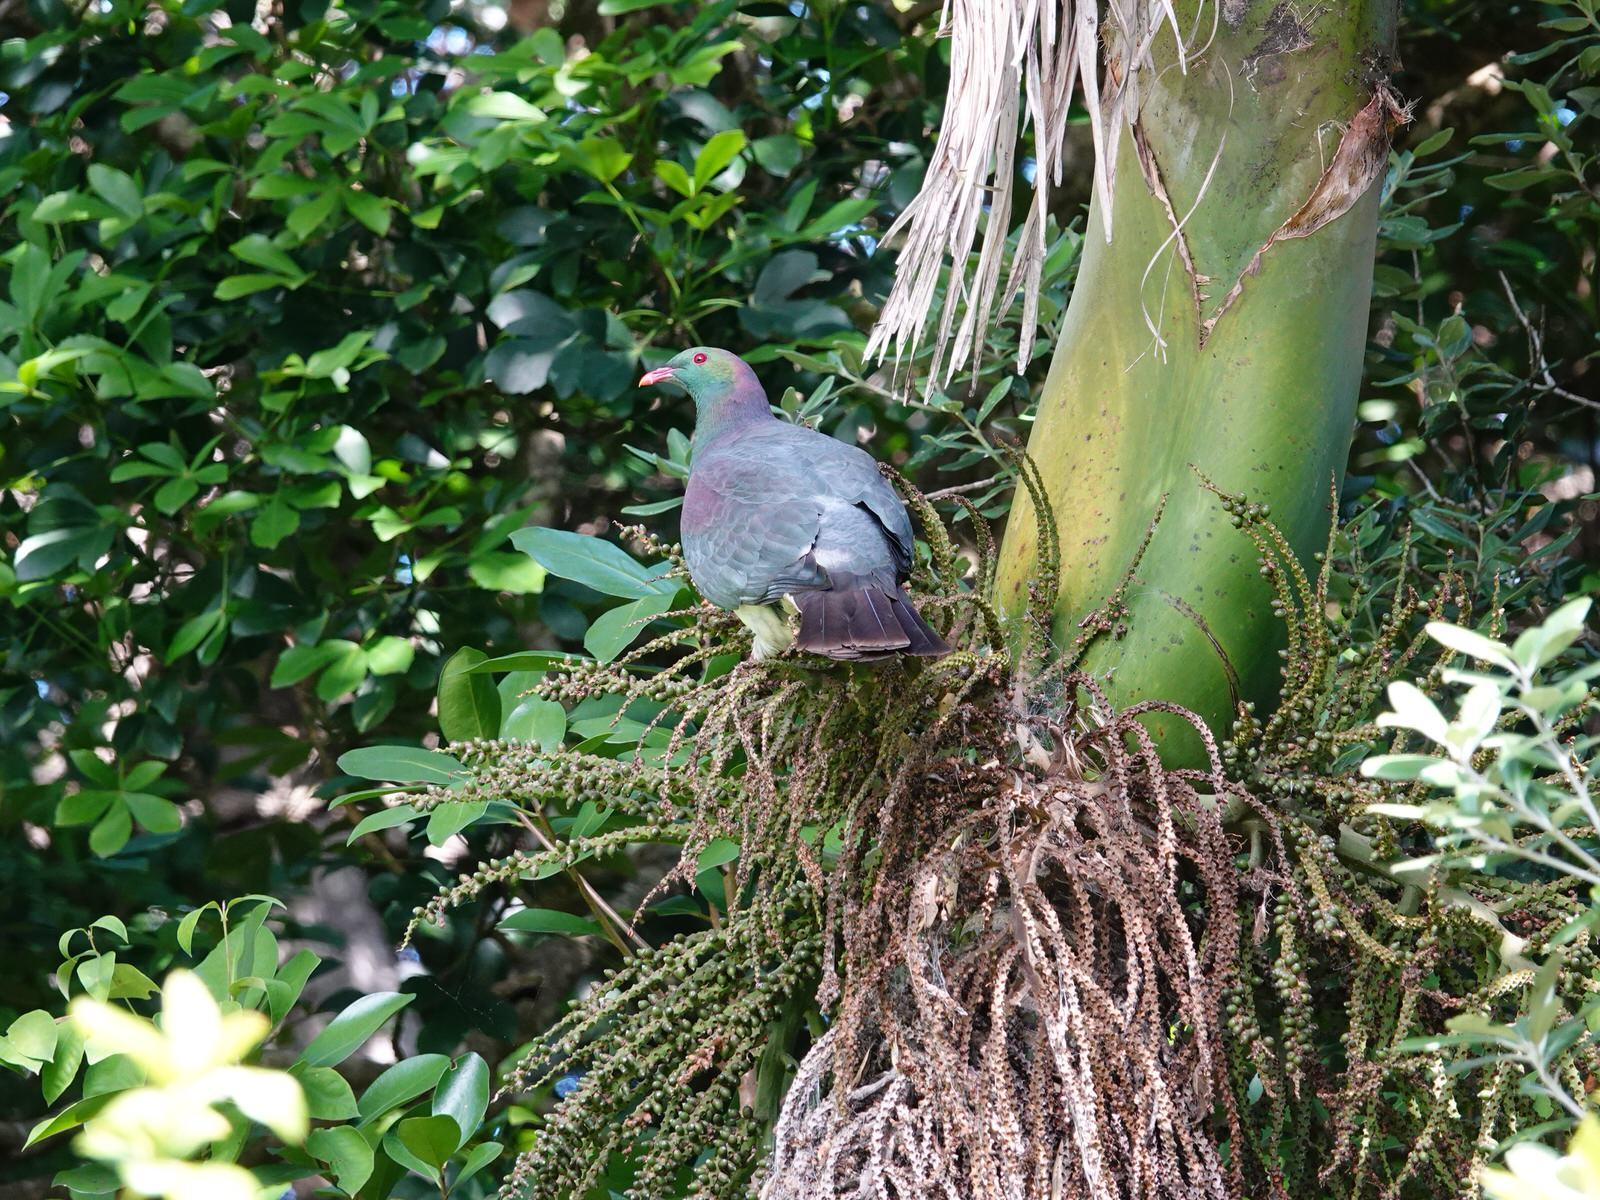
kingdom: Animalia
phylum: Chordata
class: Aves
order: Columbiformes
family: Columbidae
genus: Hemiphaga
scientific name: Hemiphaga novaeseelandiae
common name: New zealand pigeon
